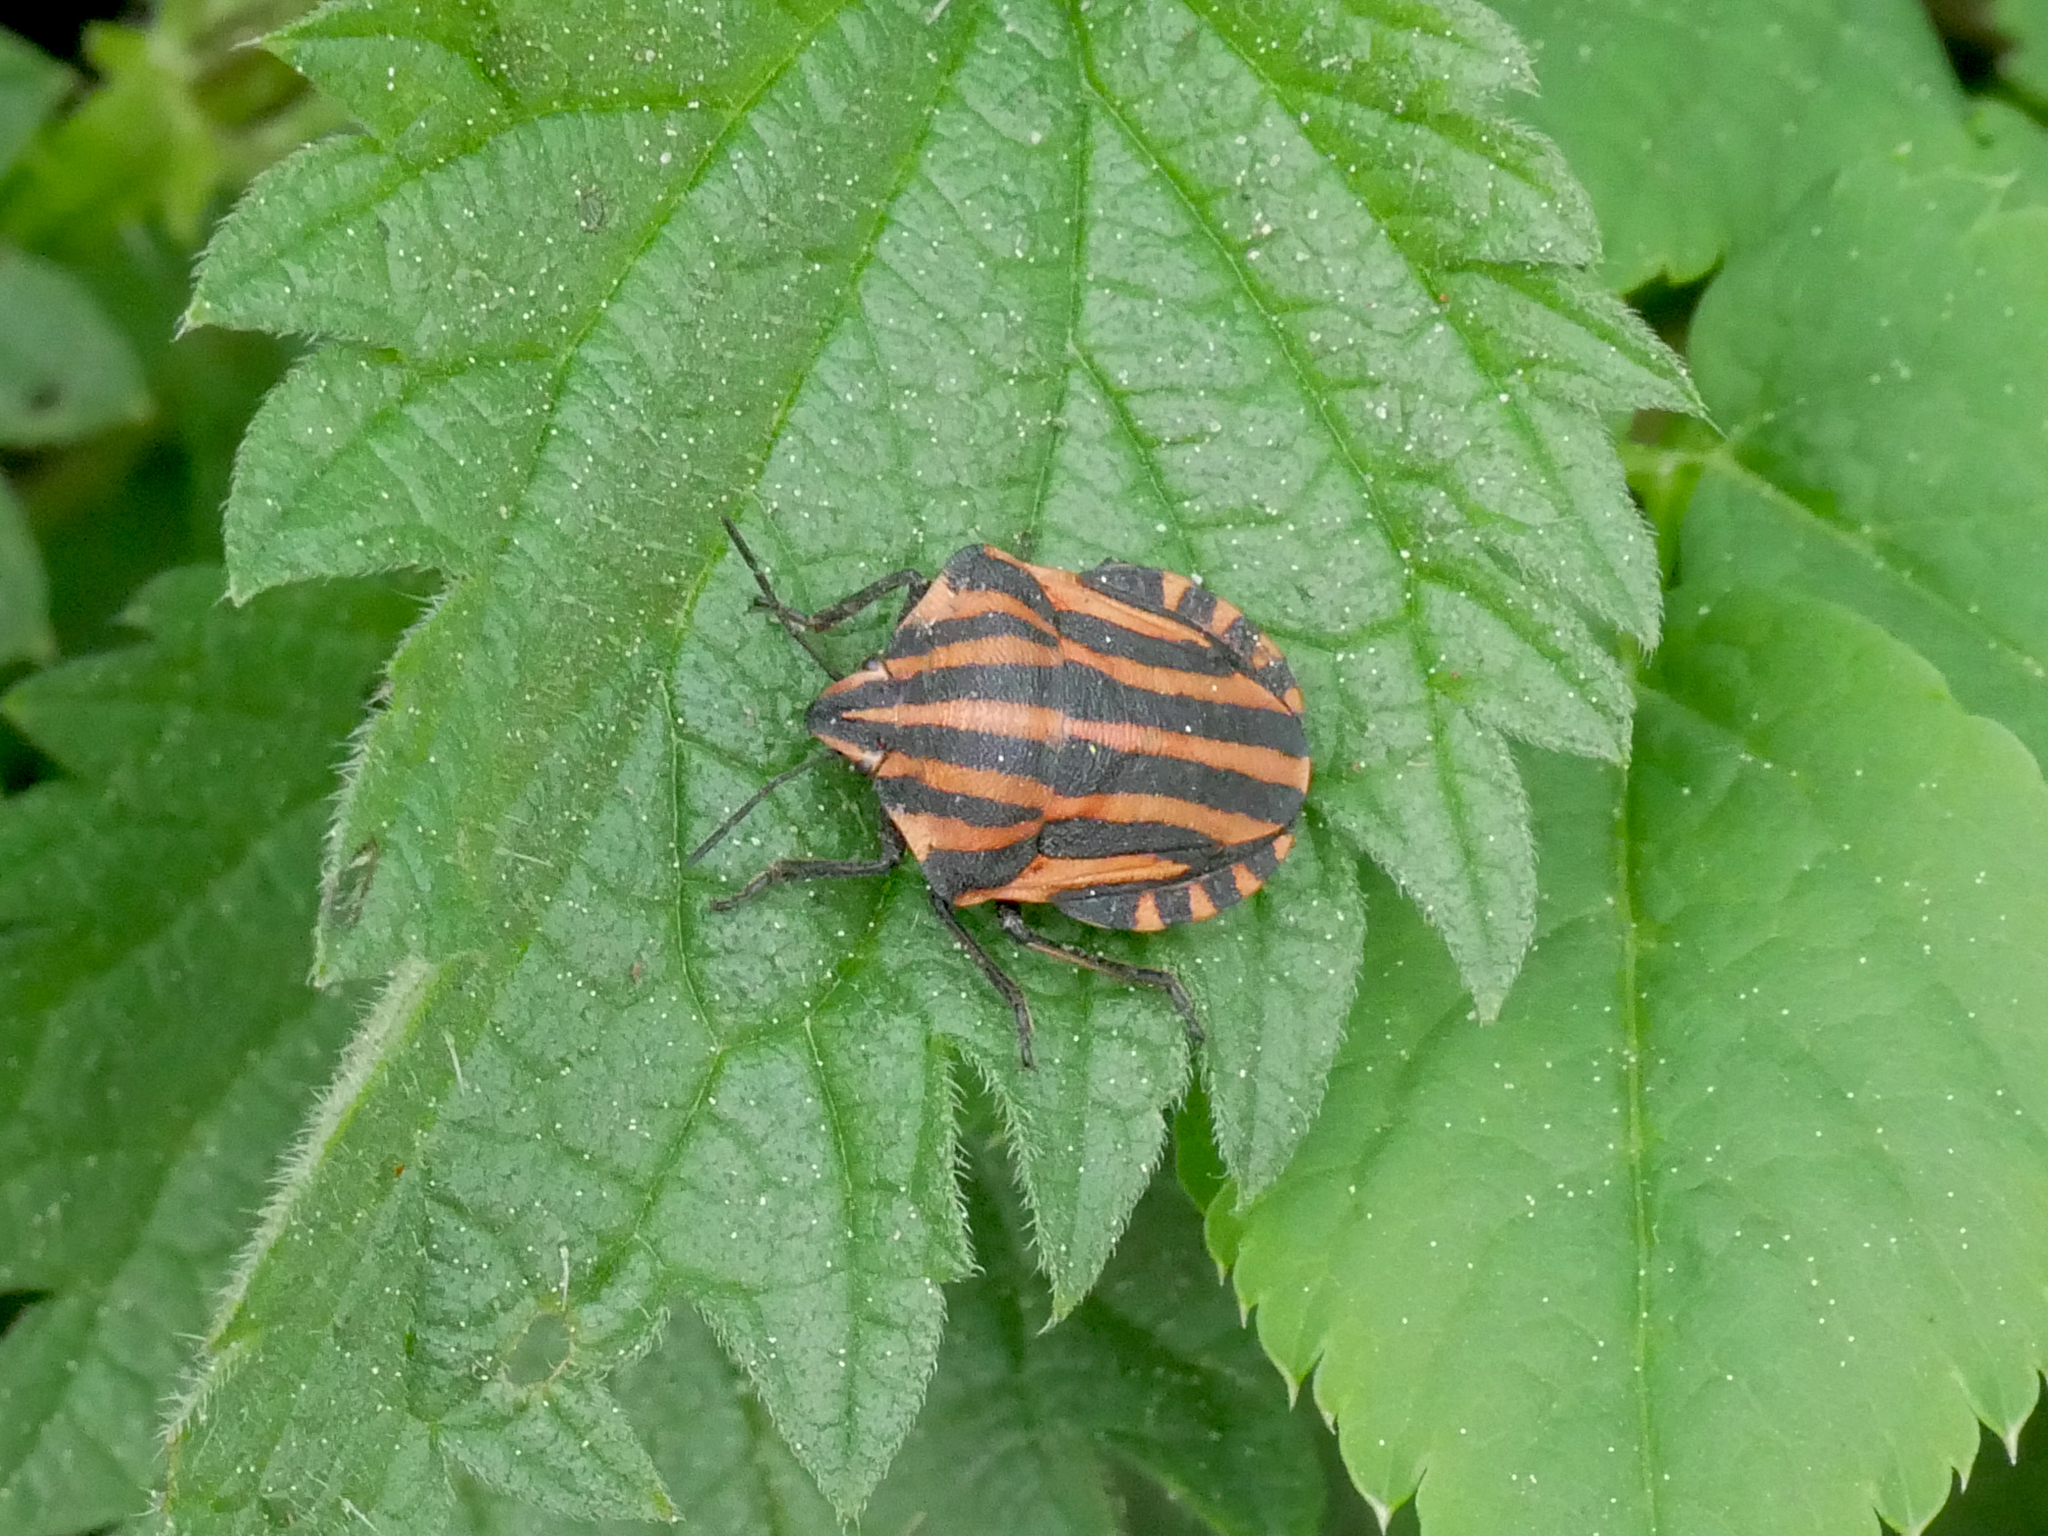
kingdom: Animalia
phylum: Arthropoda
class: Insecta
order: Hemiptera
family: Pentatomidae
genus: Graphosoma
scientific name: Graphosoma italicum
